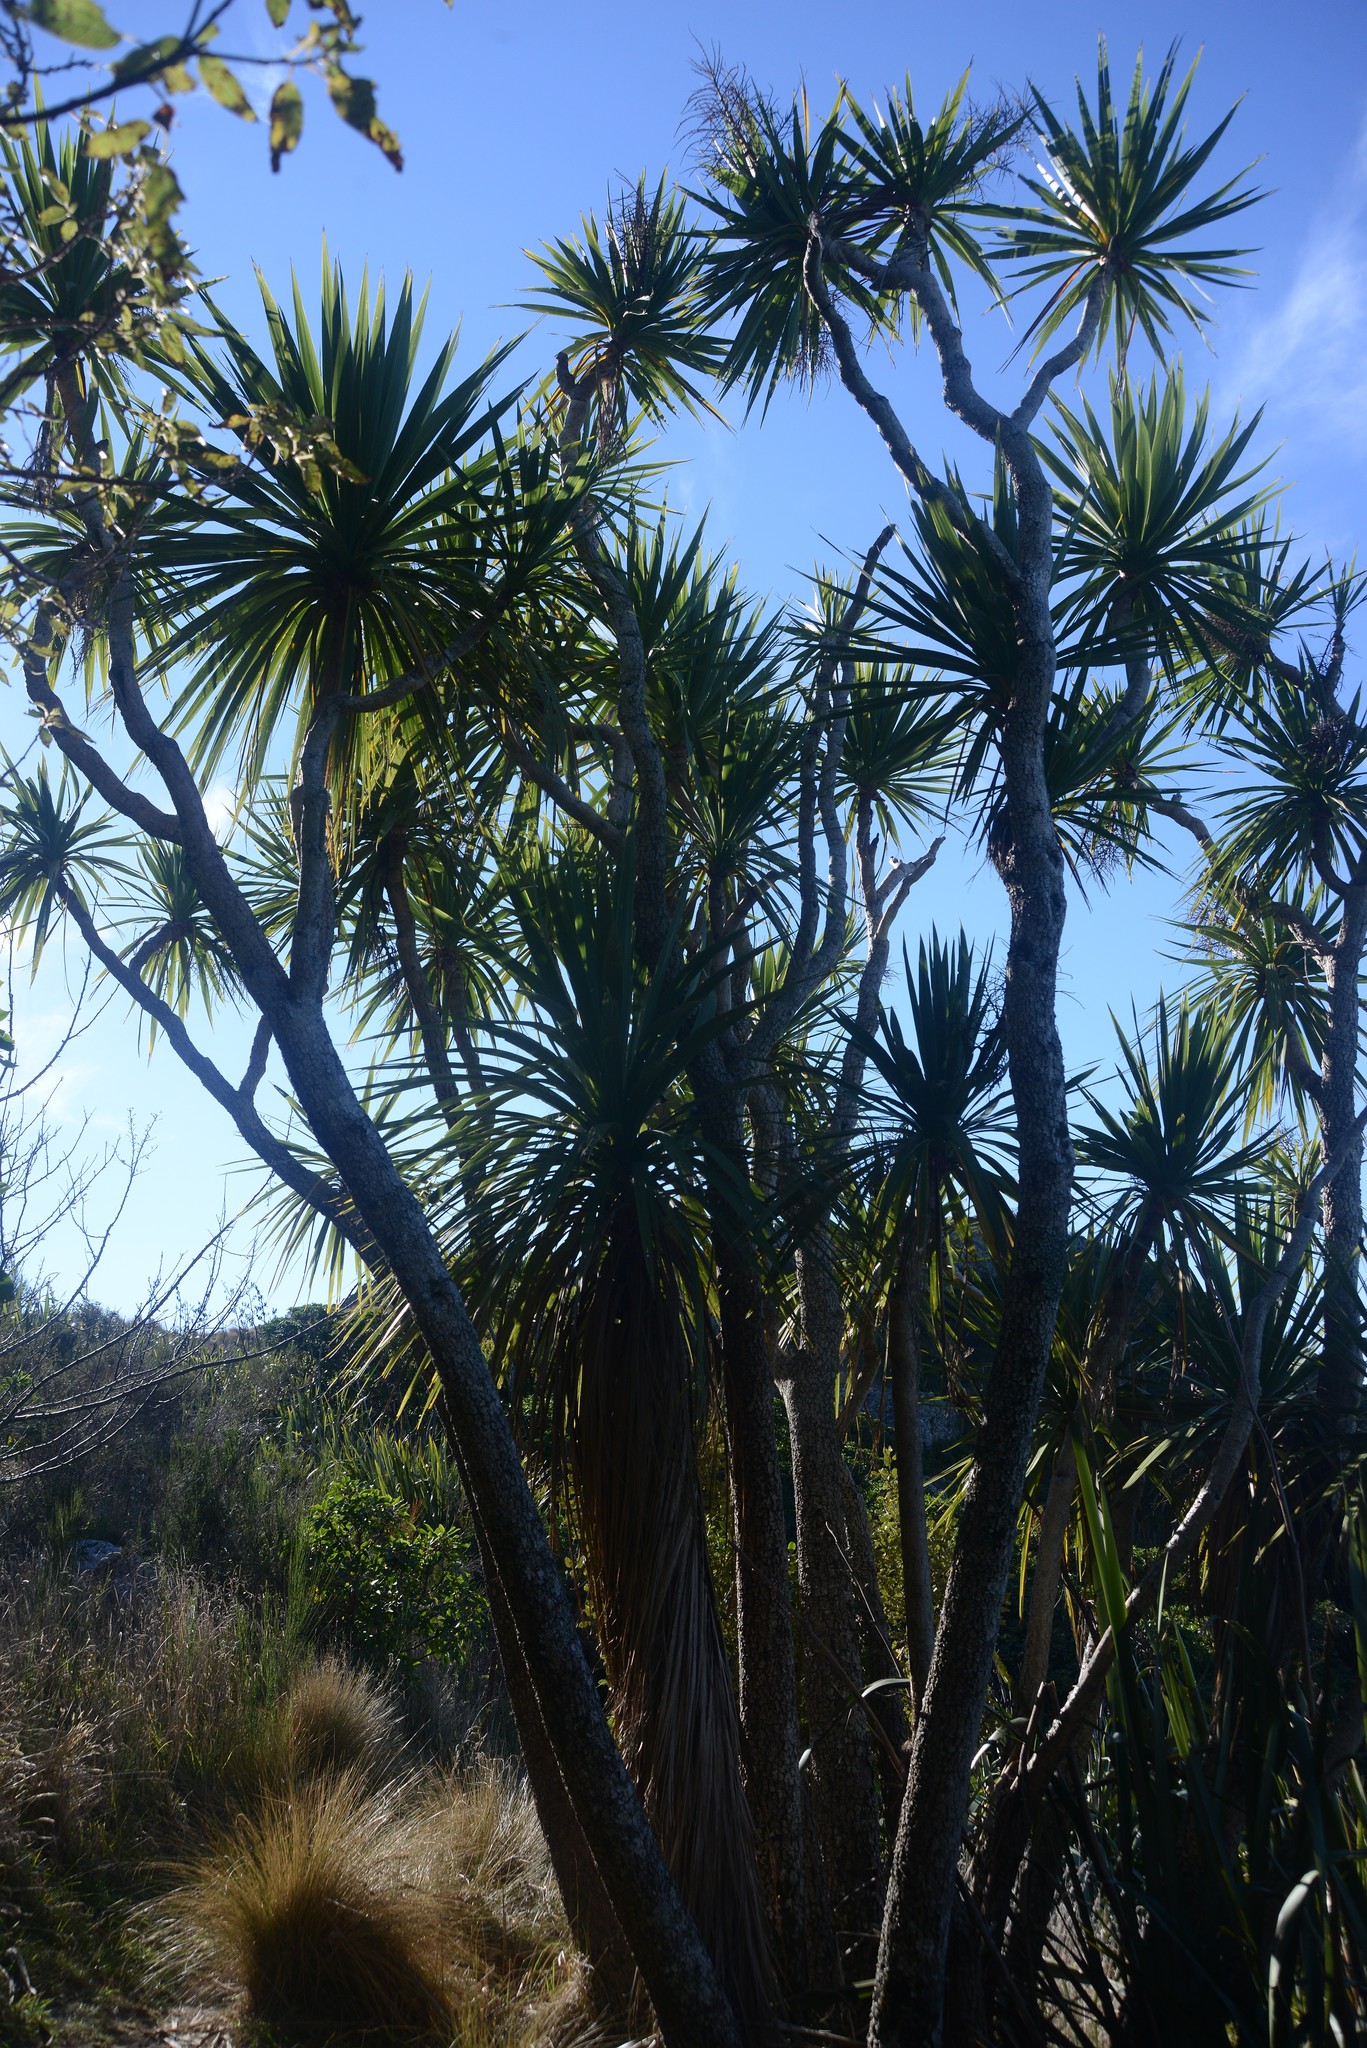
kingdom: Plantae
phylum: Tracheophyta
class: Liliopsida
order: Asparagales
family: Asparagaceae
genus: Cordyline
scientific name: Cordyline australis
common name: Cabbage-palm
